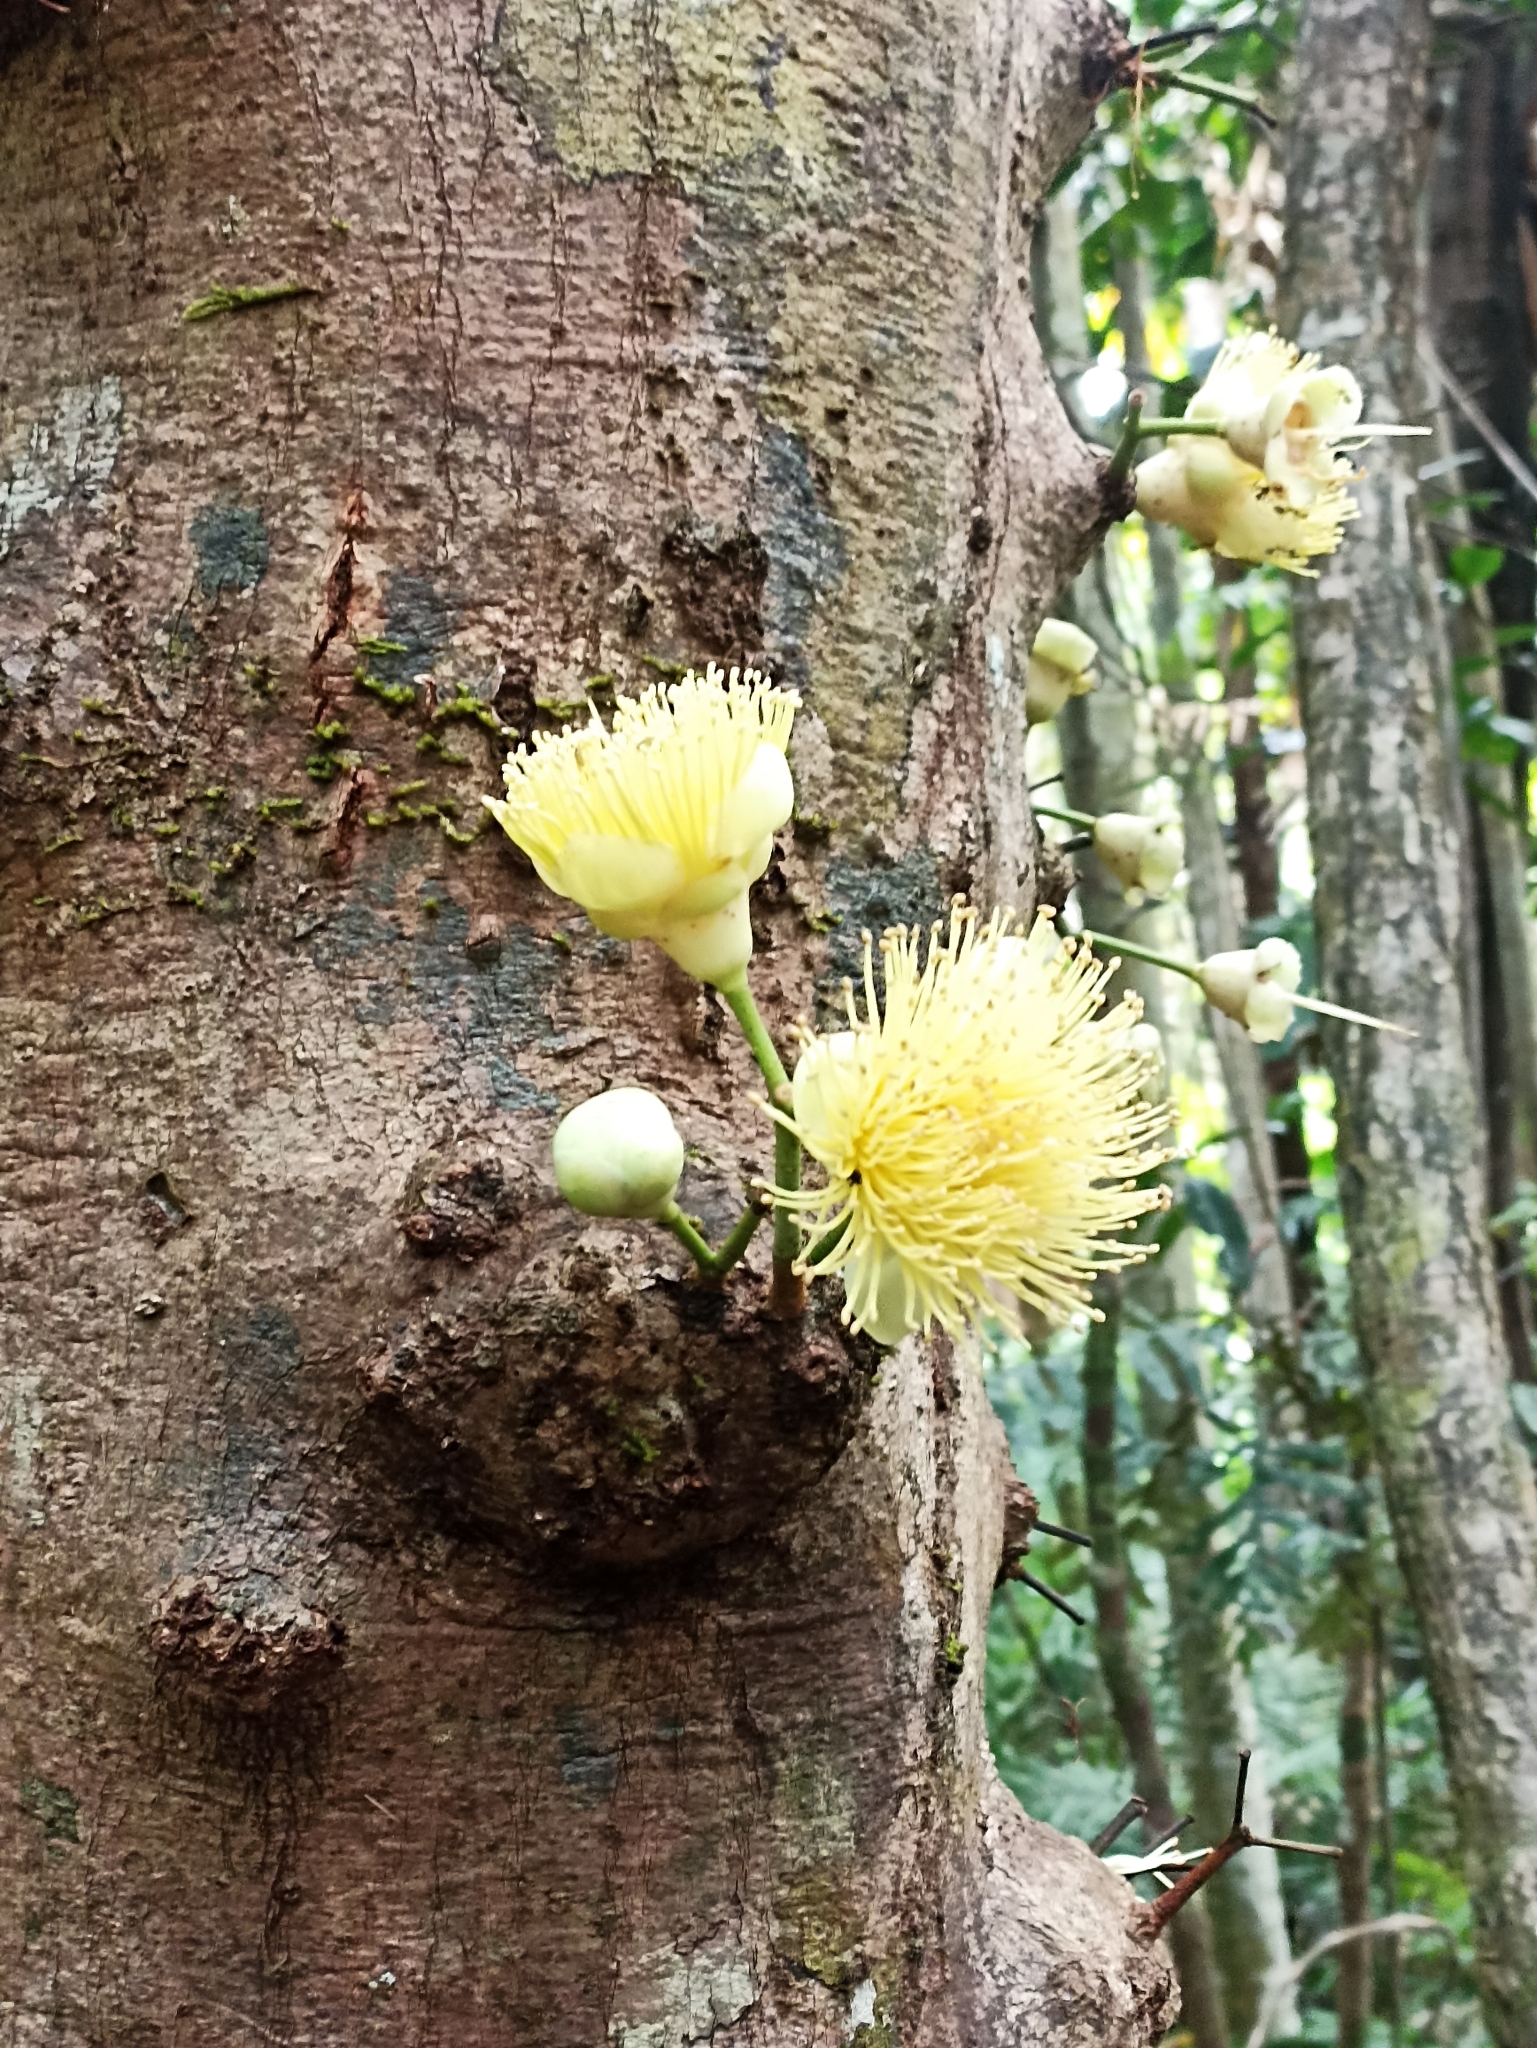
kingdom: Plantae
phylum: Tracheophyta
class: Magnoliopsida
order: Myrtales
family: Myrtaceae
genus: Syzygium
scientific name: Syzygium monospermum
